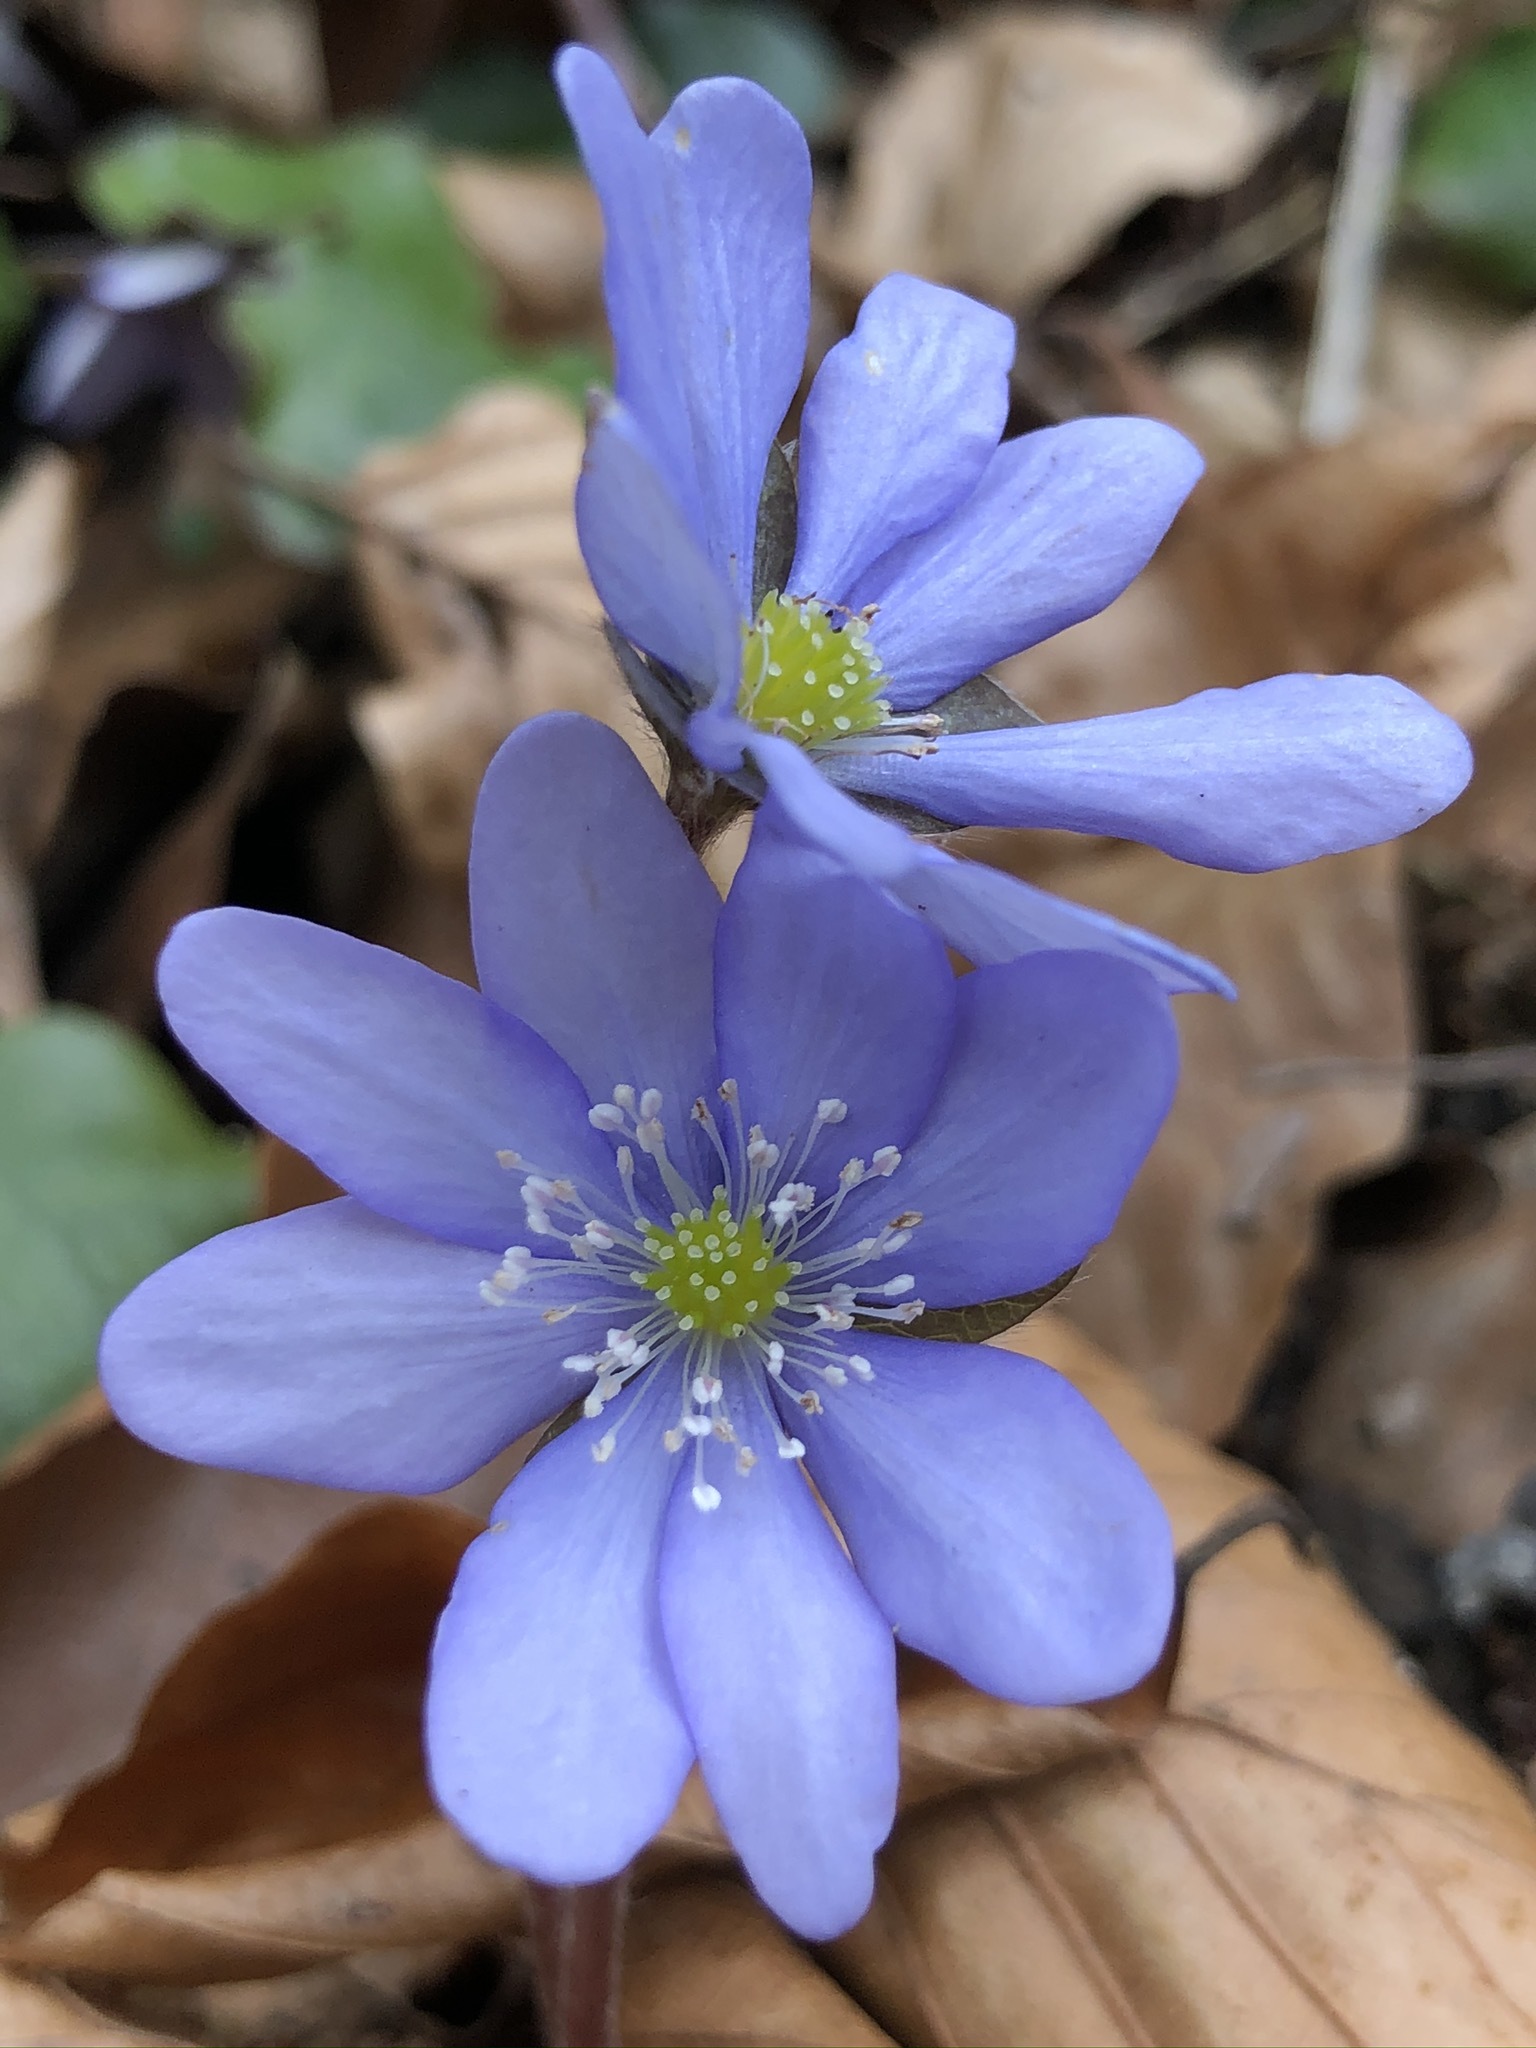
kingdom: Plantae
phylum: Tracheophyta
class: Magnoliopsida
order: Ranunculales
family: Ranunculaceae
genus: Hepatica
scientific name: Hepatica nobilis
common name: Liverleaf
